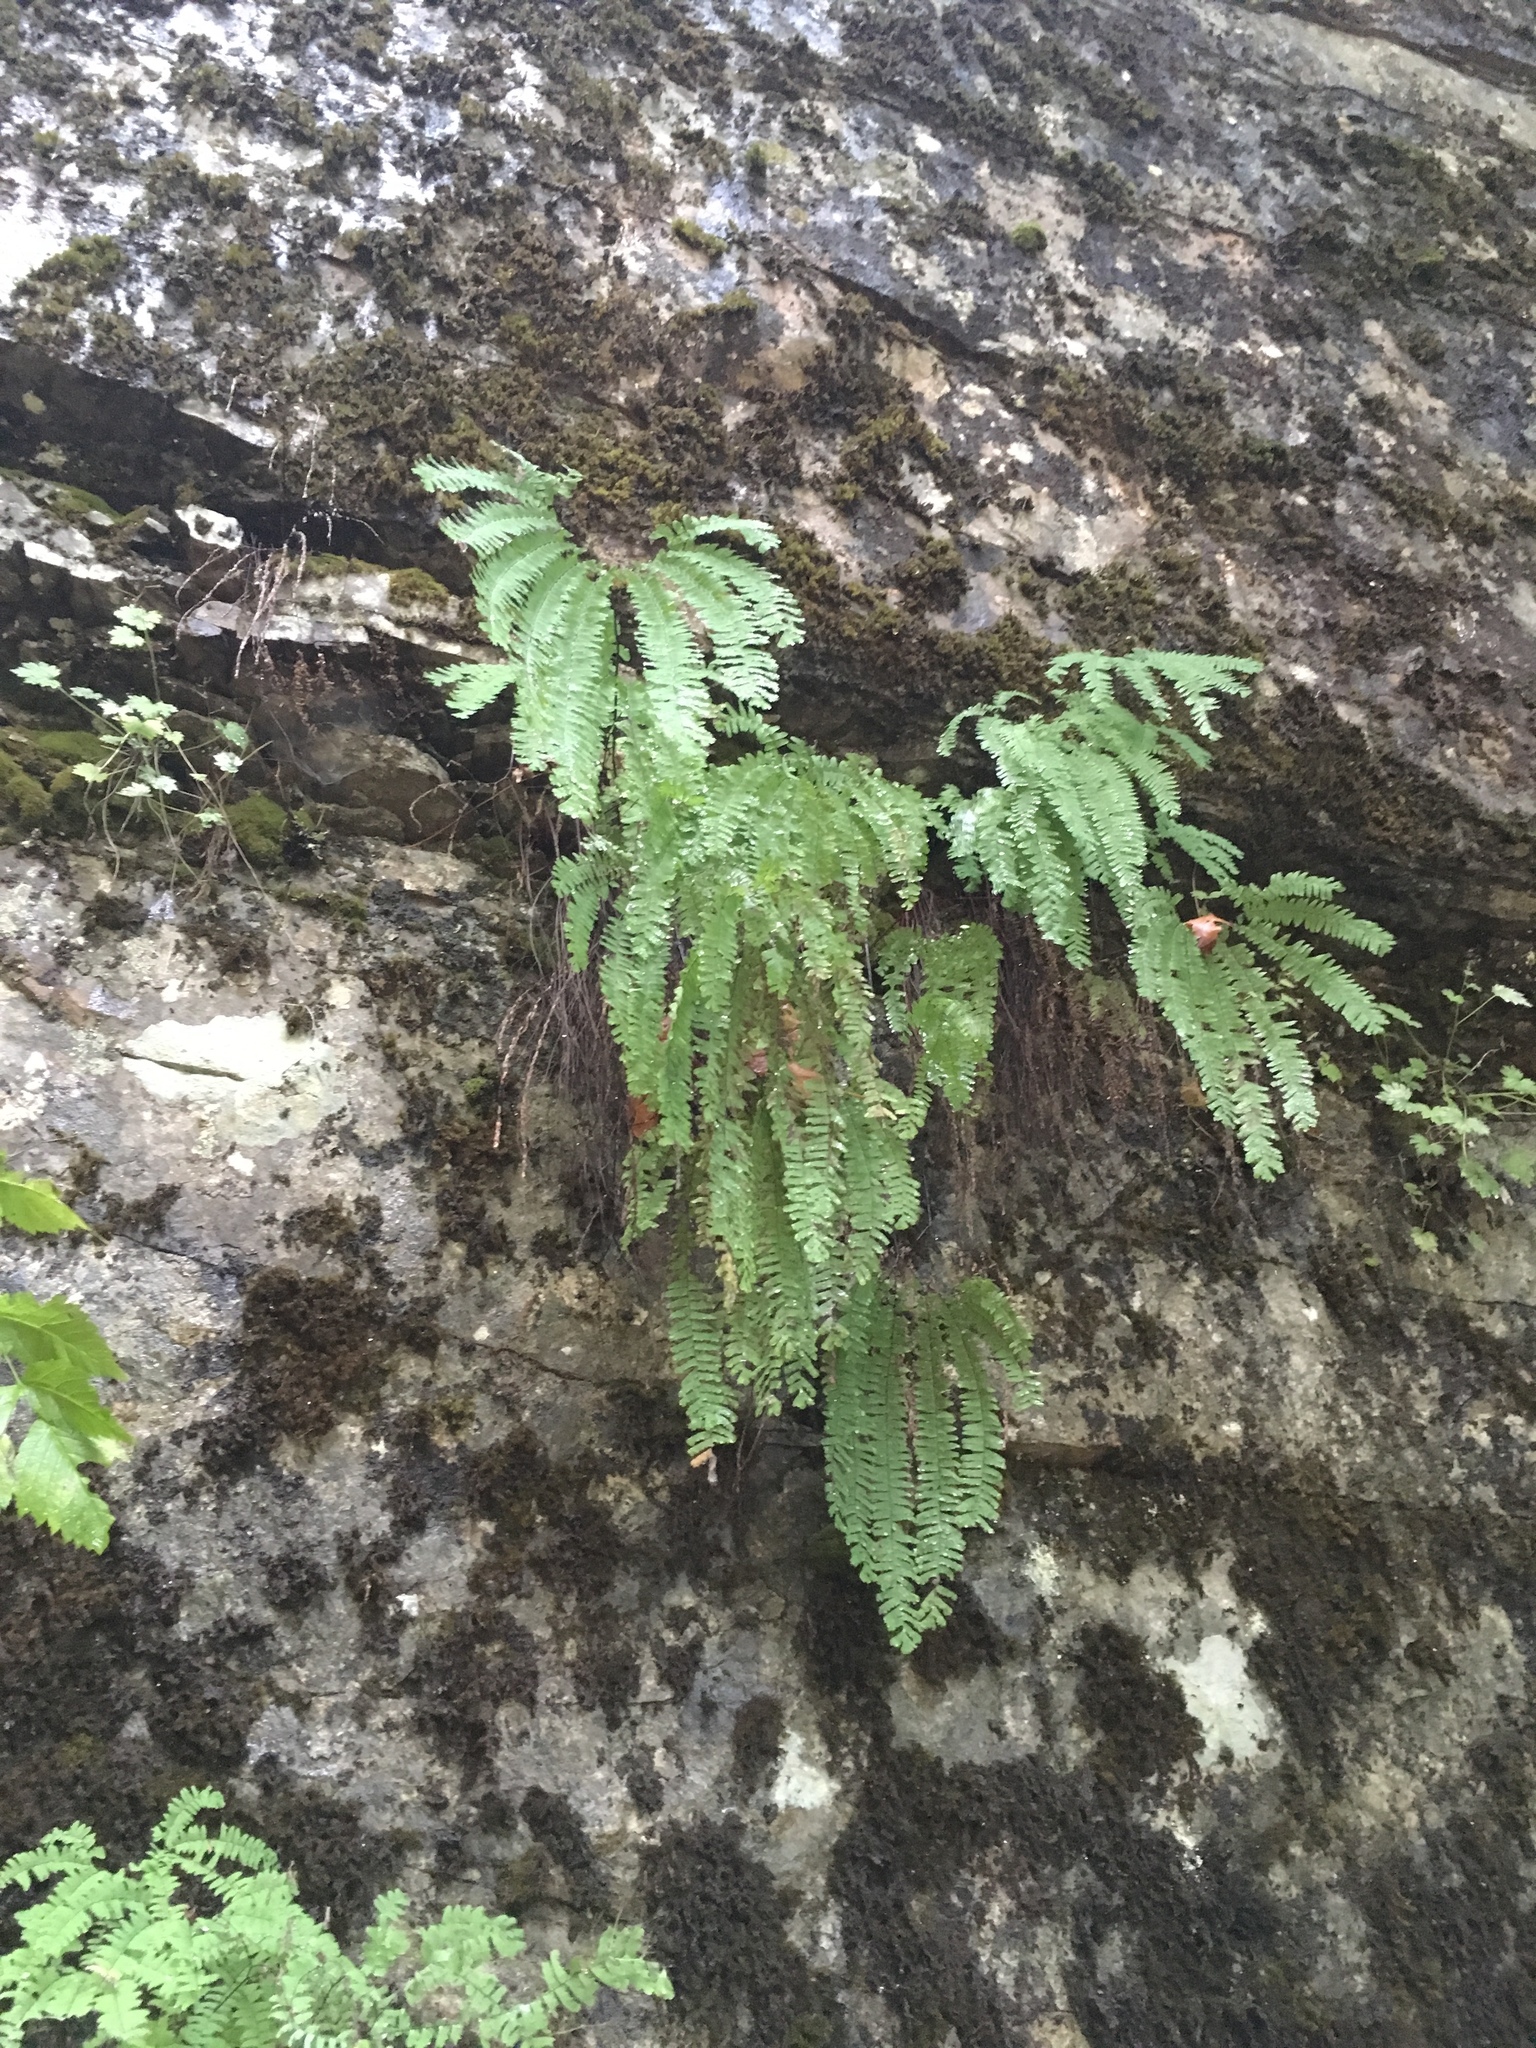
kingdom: Plantae
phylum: Tracheophyta
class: Polypodiopsida
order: Polypodiales
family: Pteridaceae
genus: Adiantum
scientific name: Adiantum aleuticum
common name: Aleutian maidenhair fern
